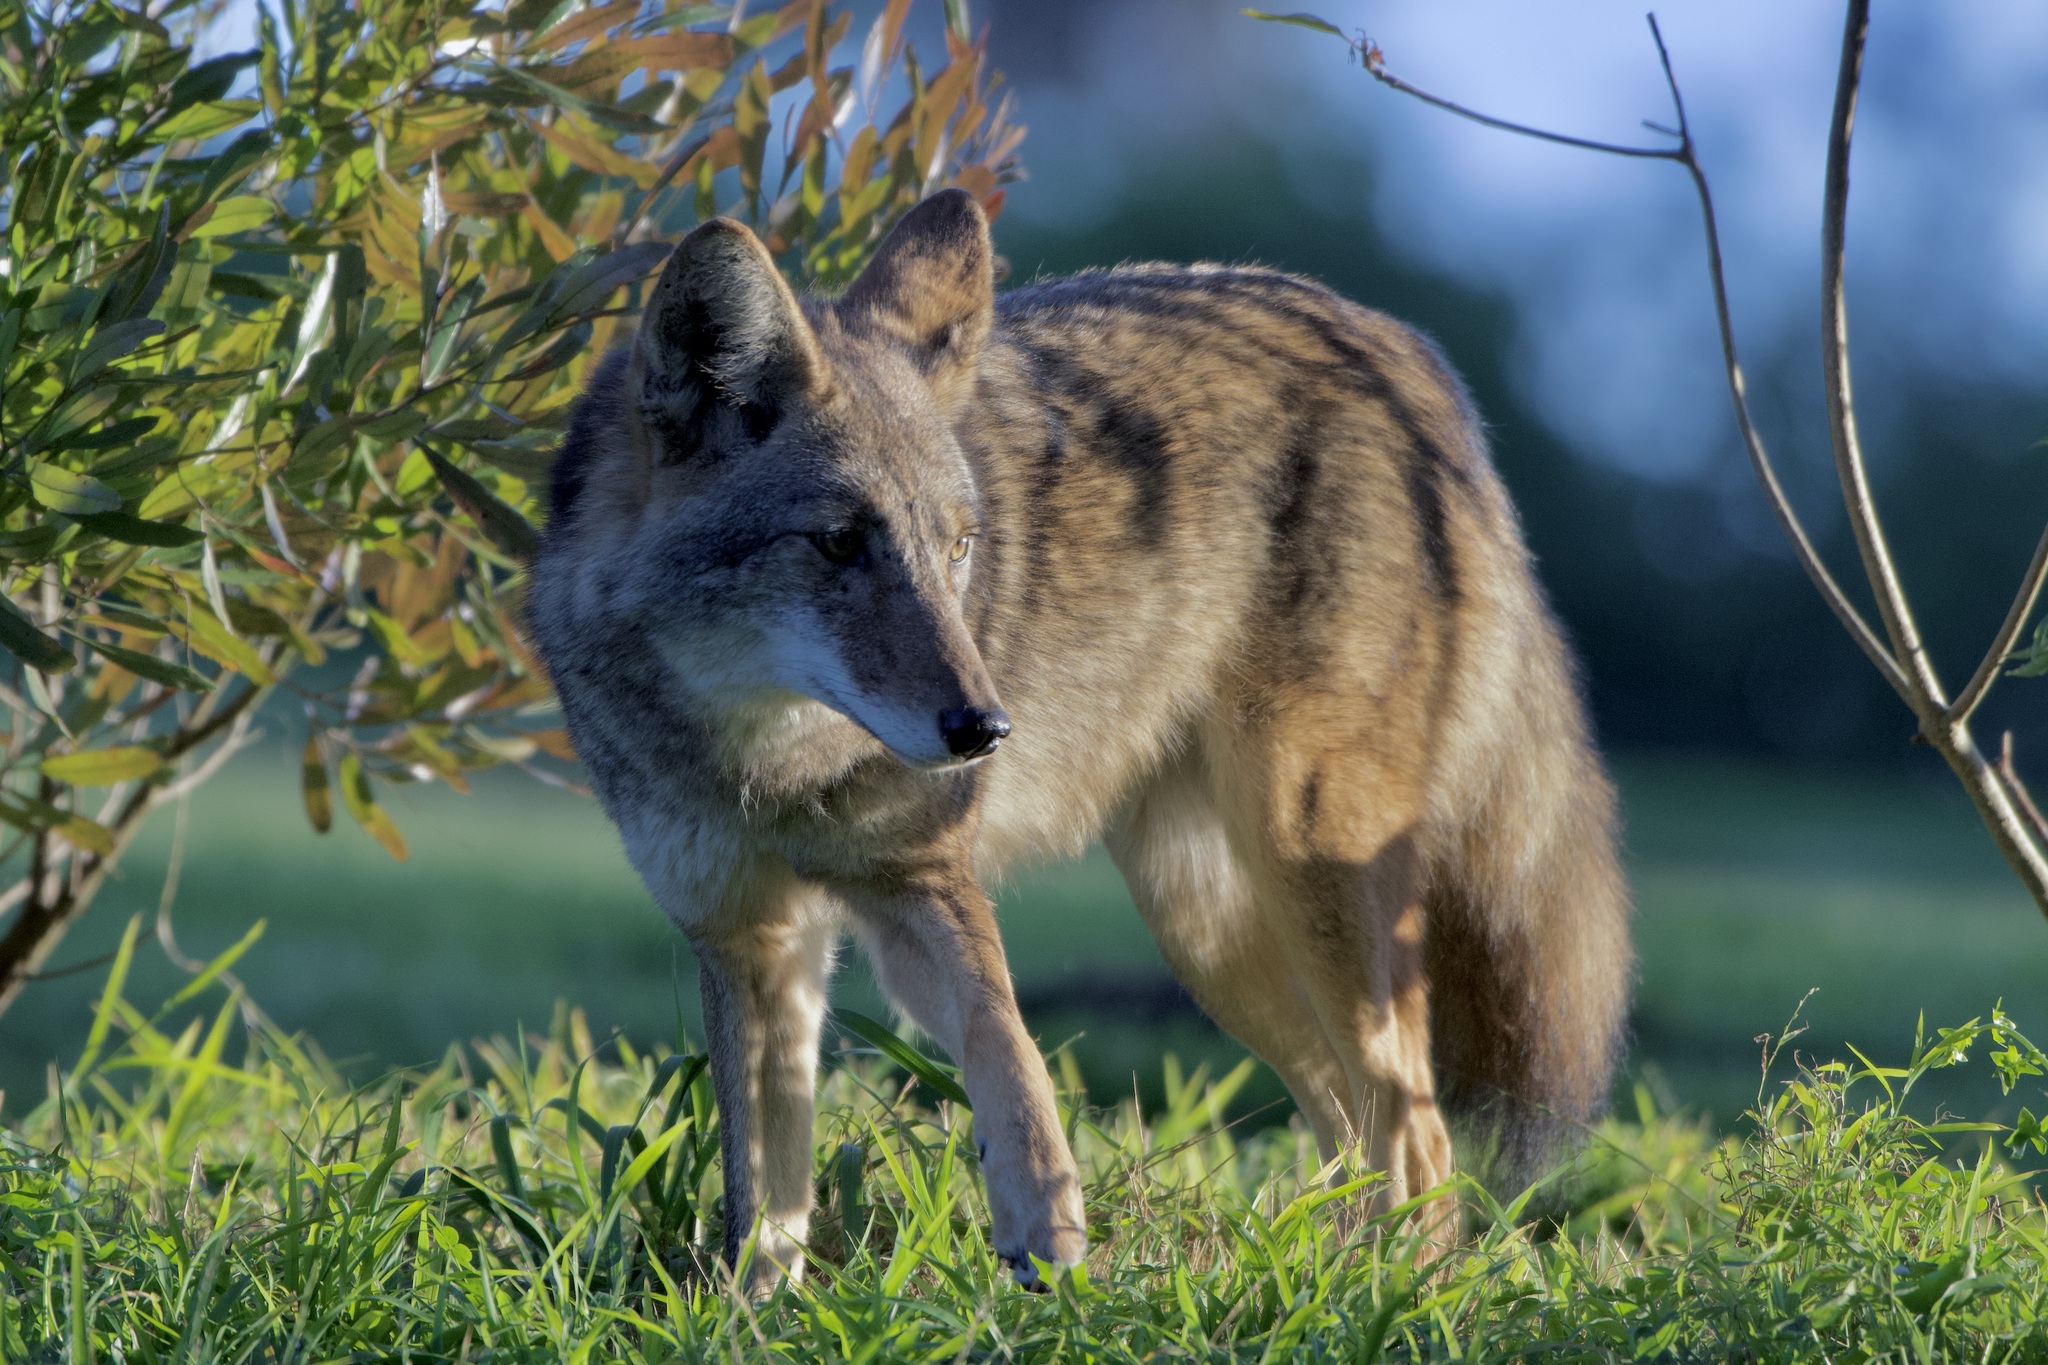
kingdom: Animalia
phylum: Chordata
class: Mammalia
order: Carnivora
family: Canidae
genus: Canis
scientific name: Canis latrans
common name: Coyote
